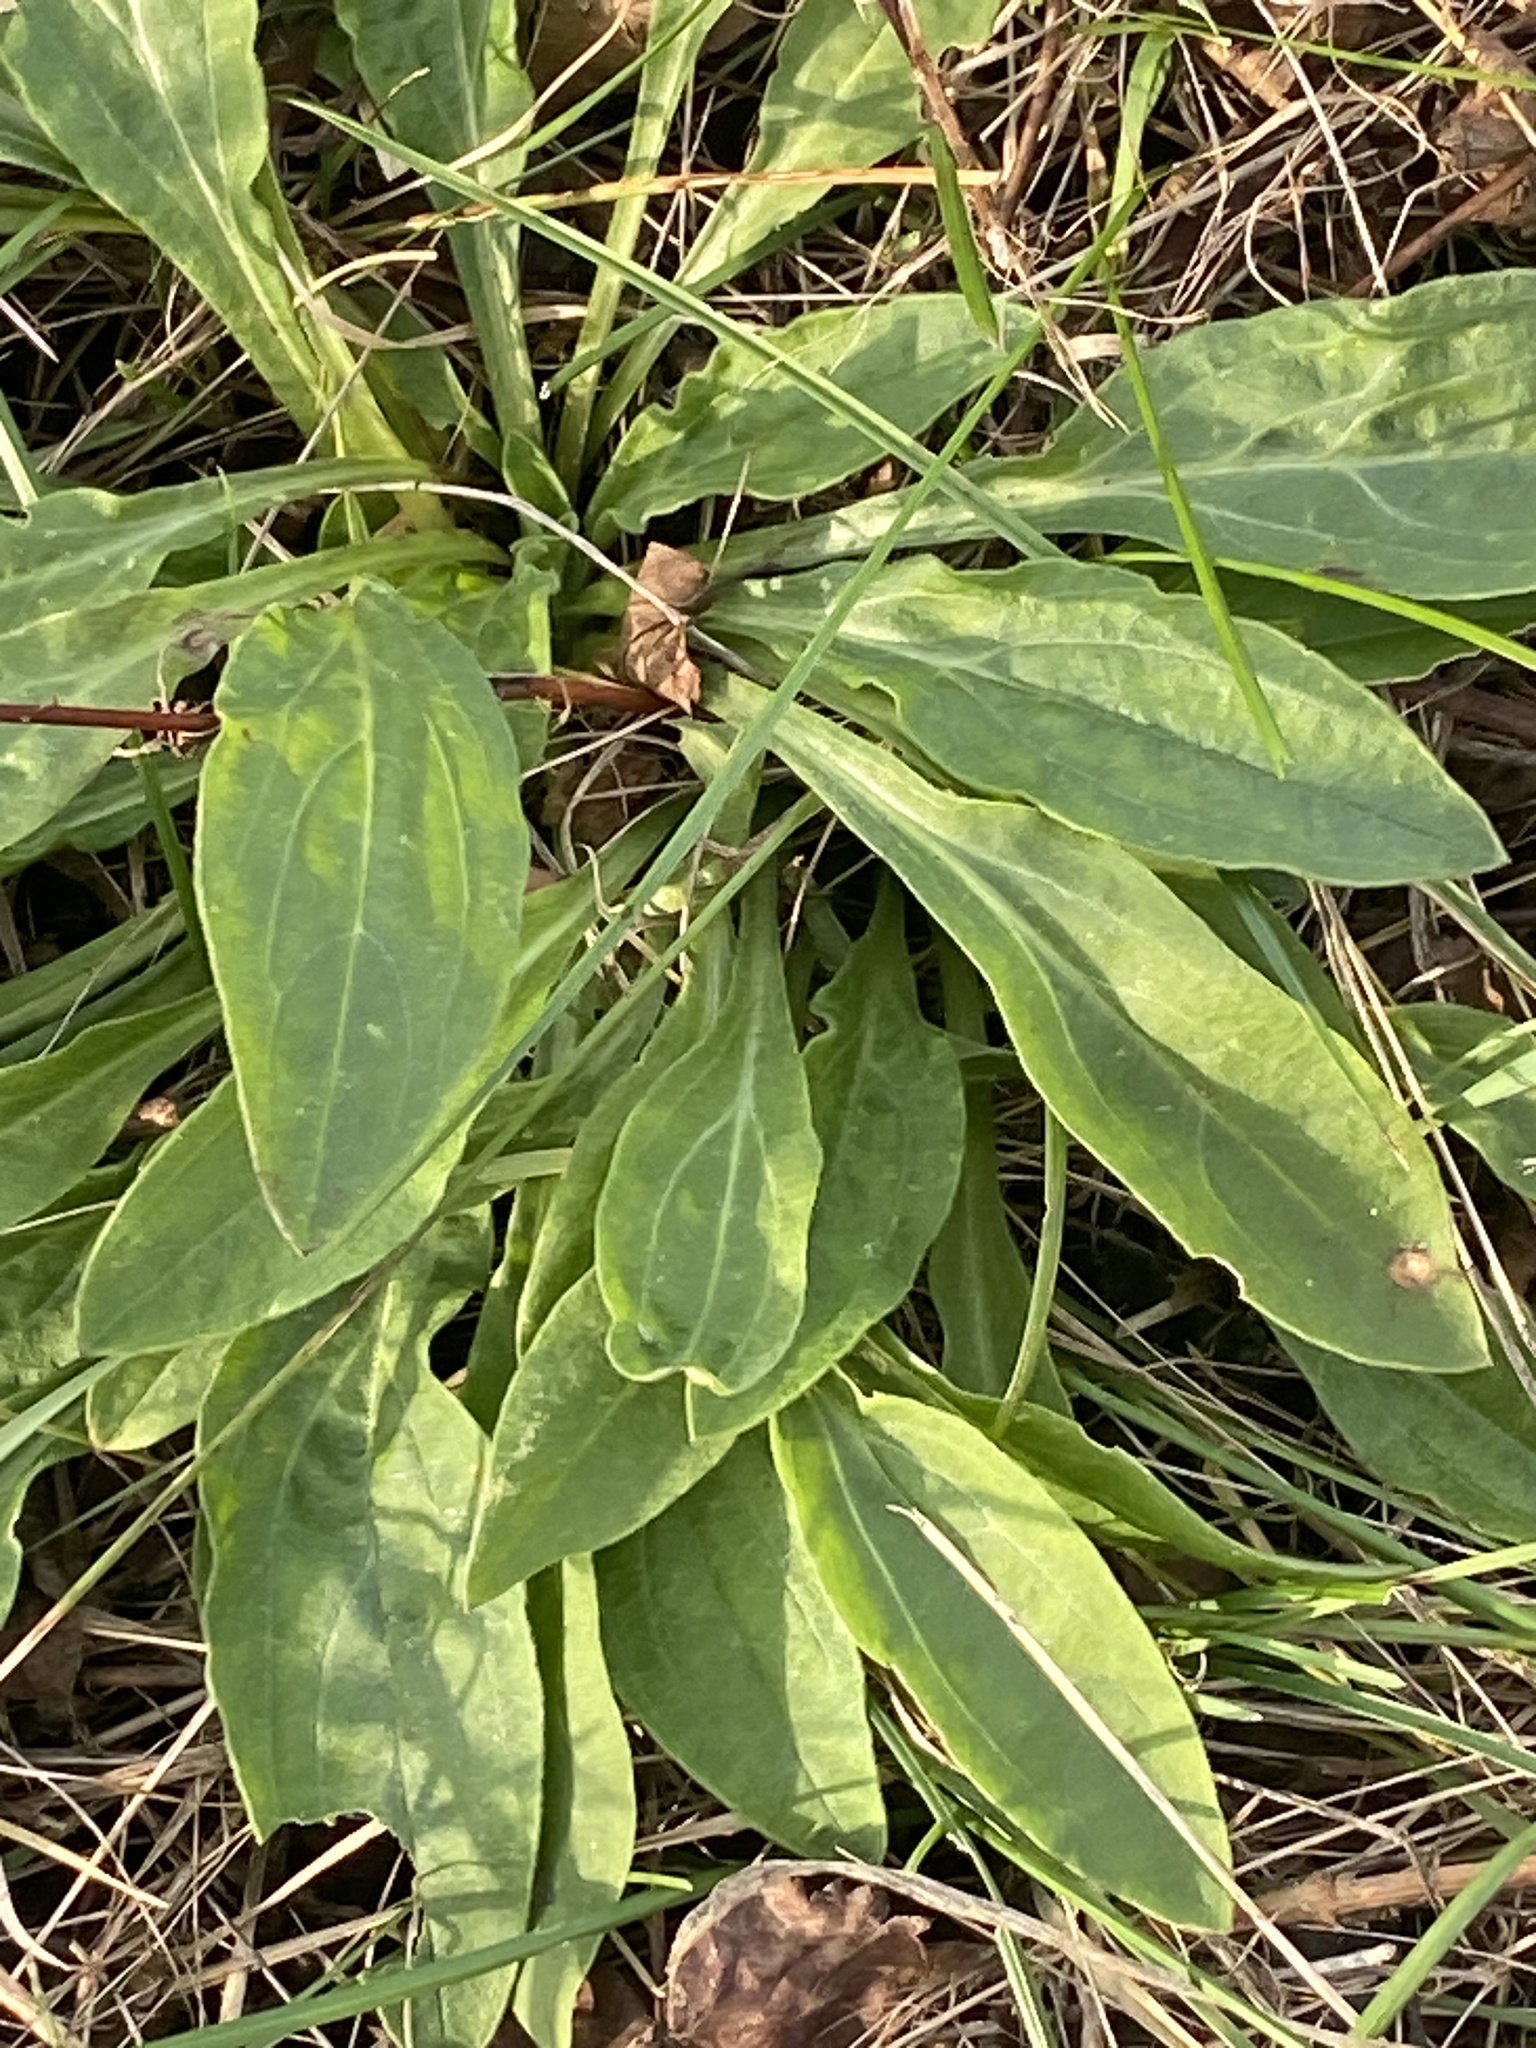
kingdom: Plantae
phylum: Tracheophyta
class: Magnoliopsida
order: Caryophyllales
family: Caryophyllaceae
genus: Silene
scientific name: Silene latifolia
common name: White campion
